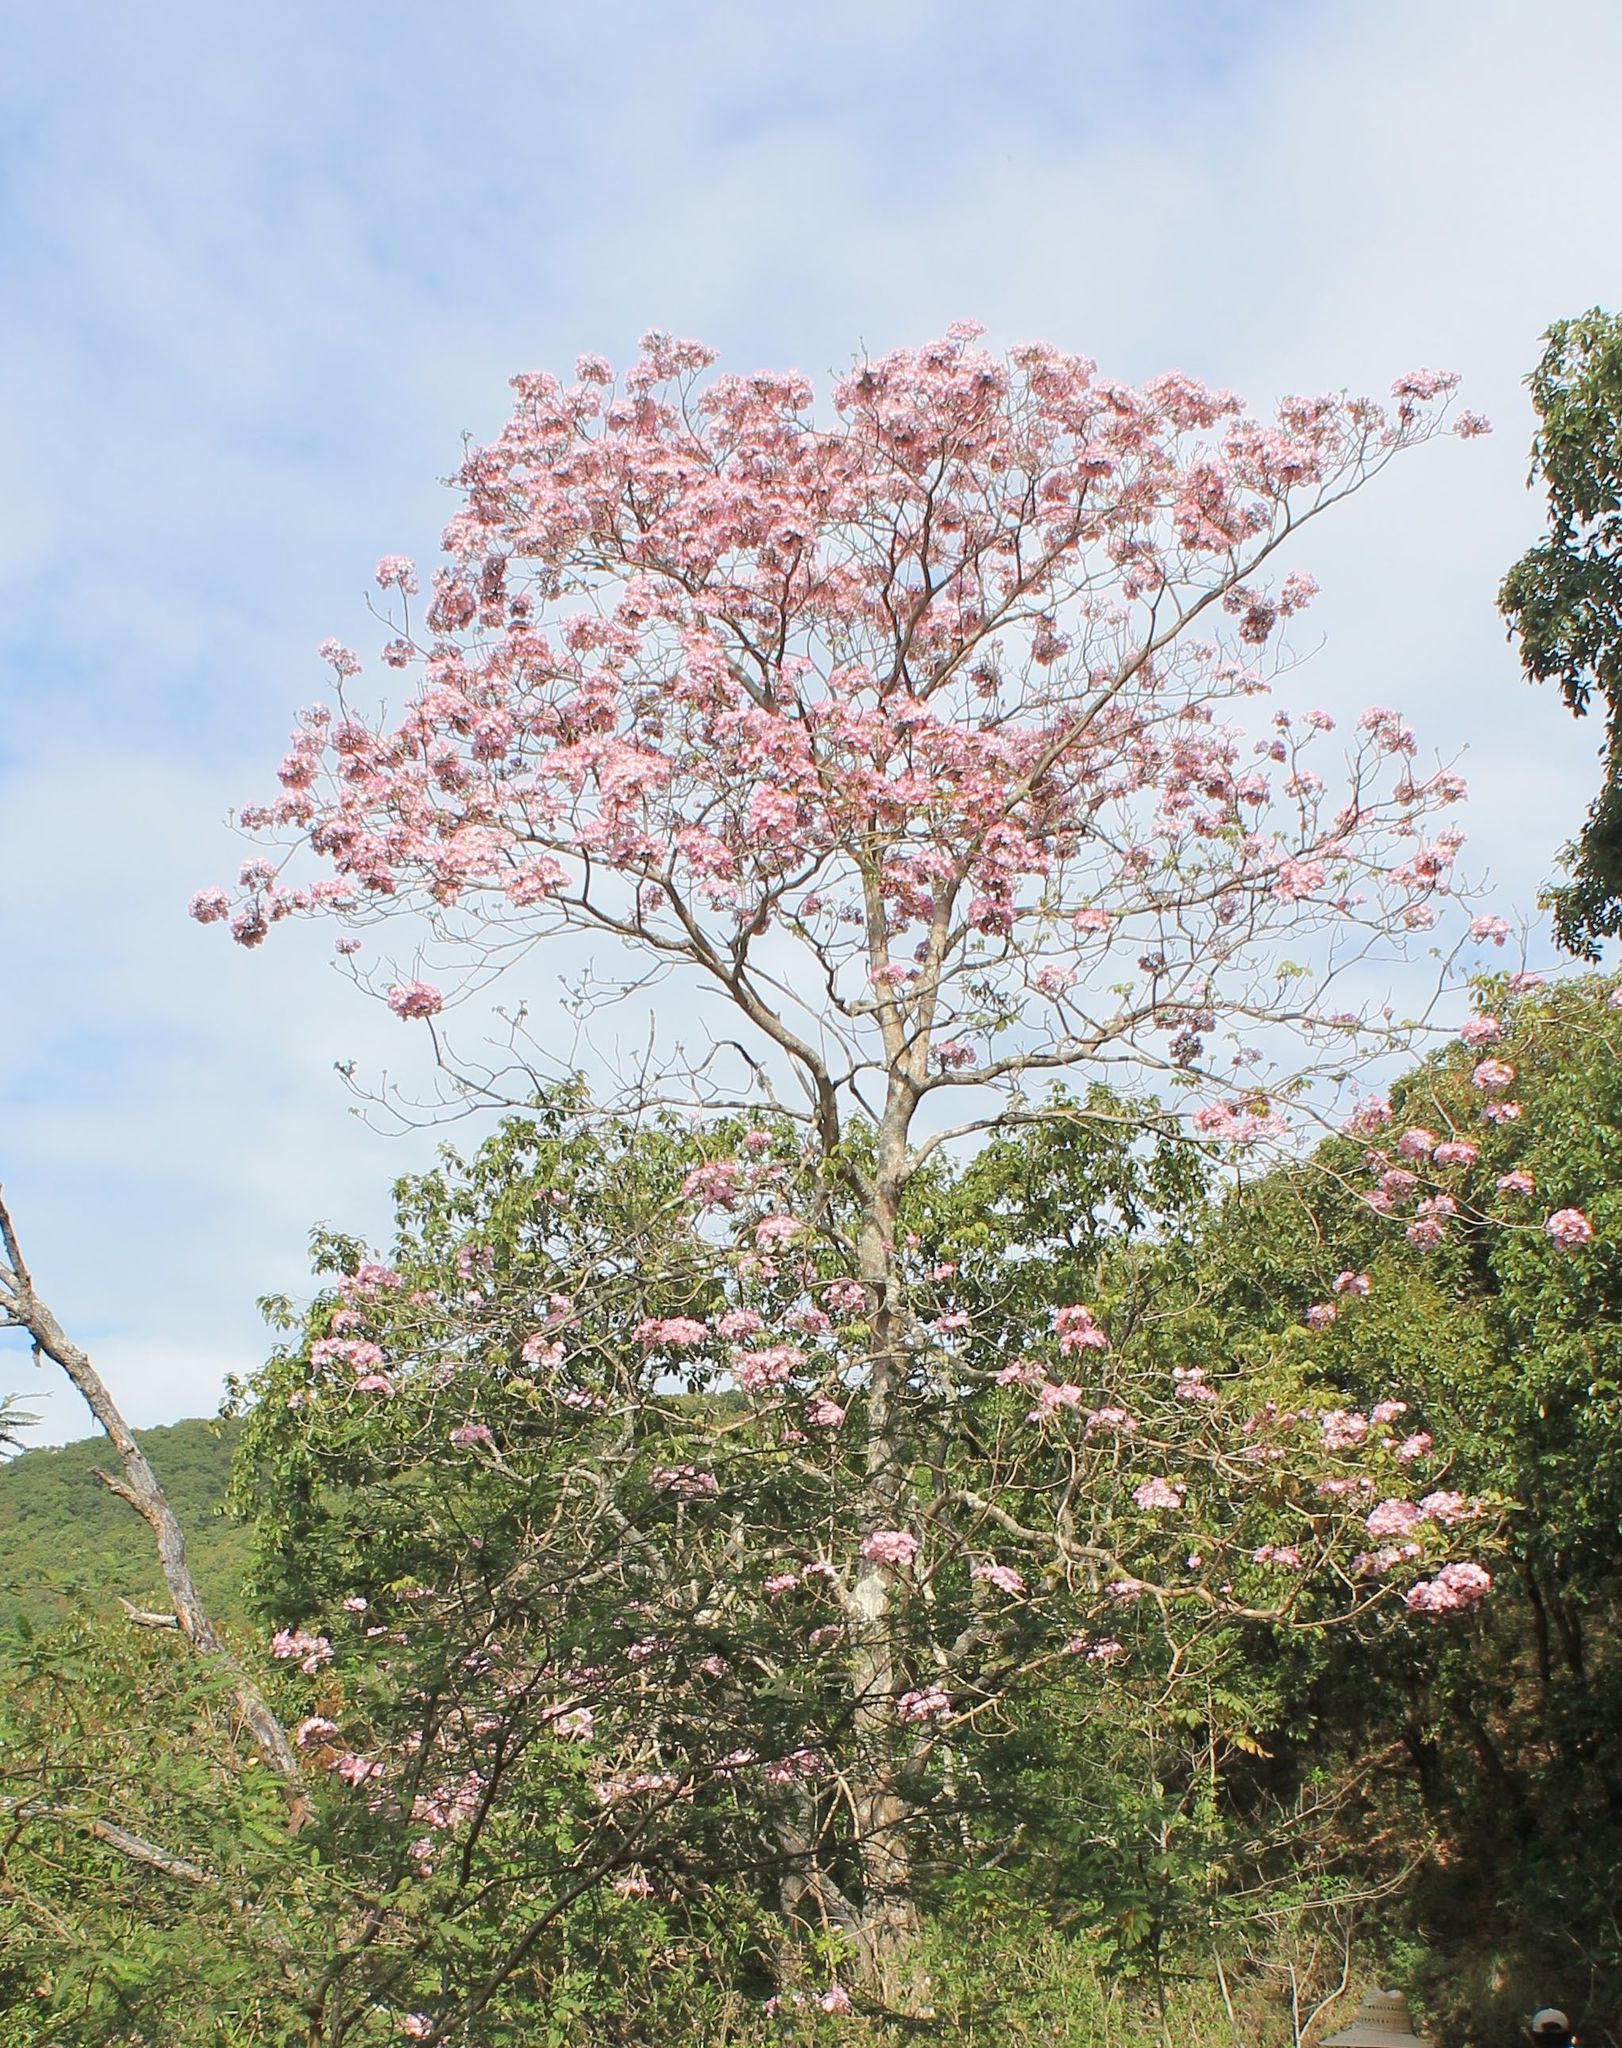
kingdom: Plantae
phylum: Tracheophyta
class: Magnoliopsida
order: Lamiales
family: Bignoniaceae
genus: Tabebuia
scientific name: Tabebuia rosea
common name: Pink poui
